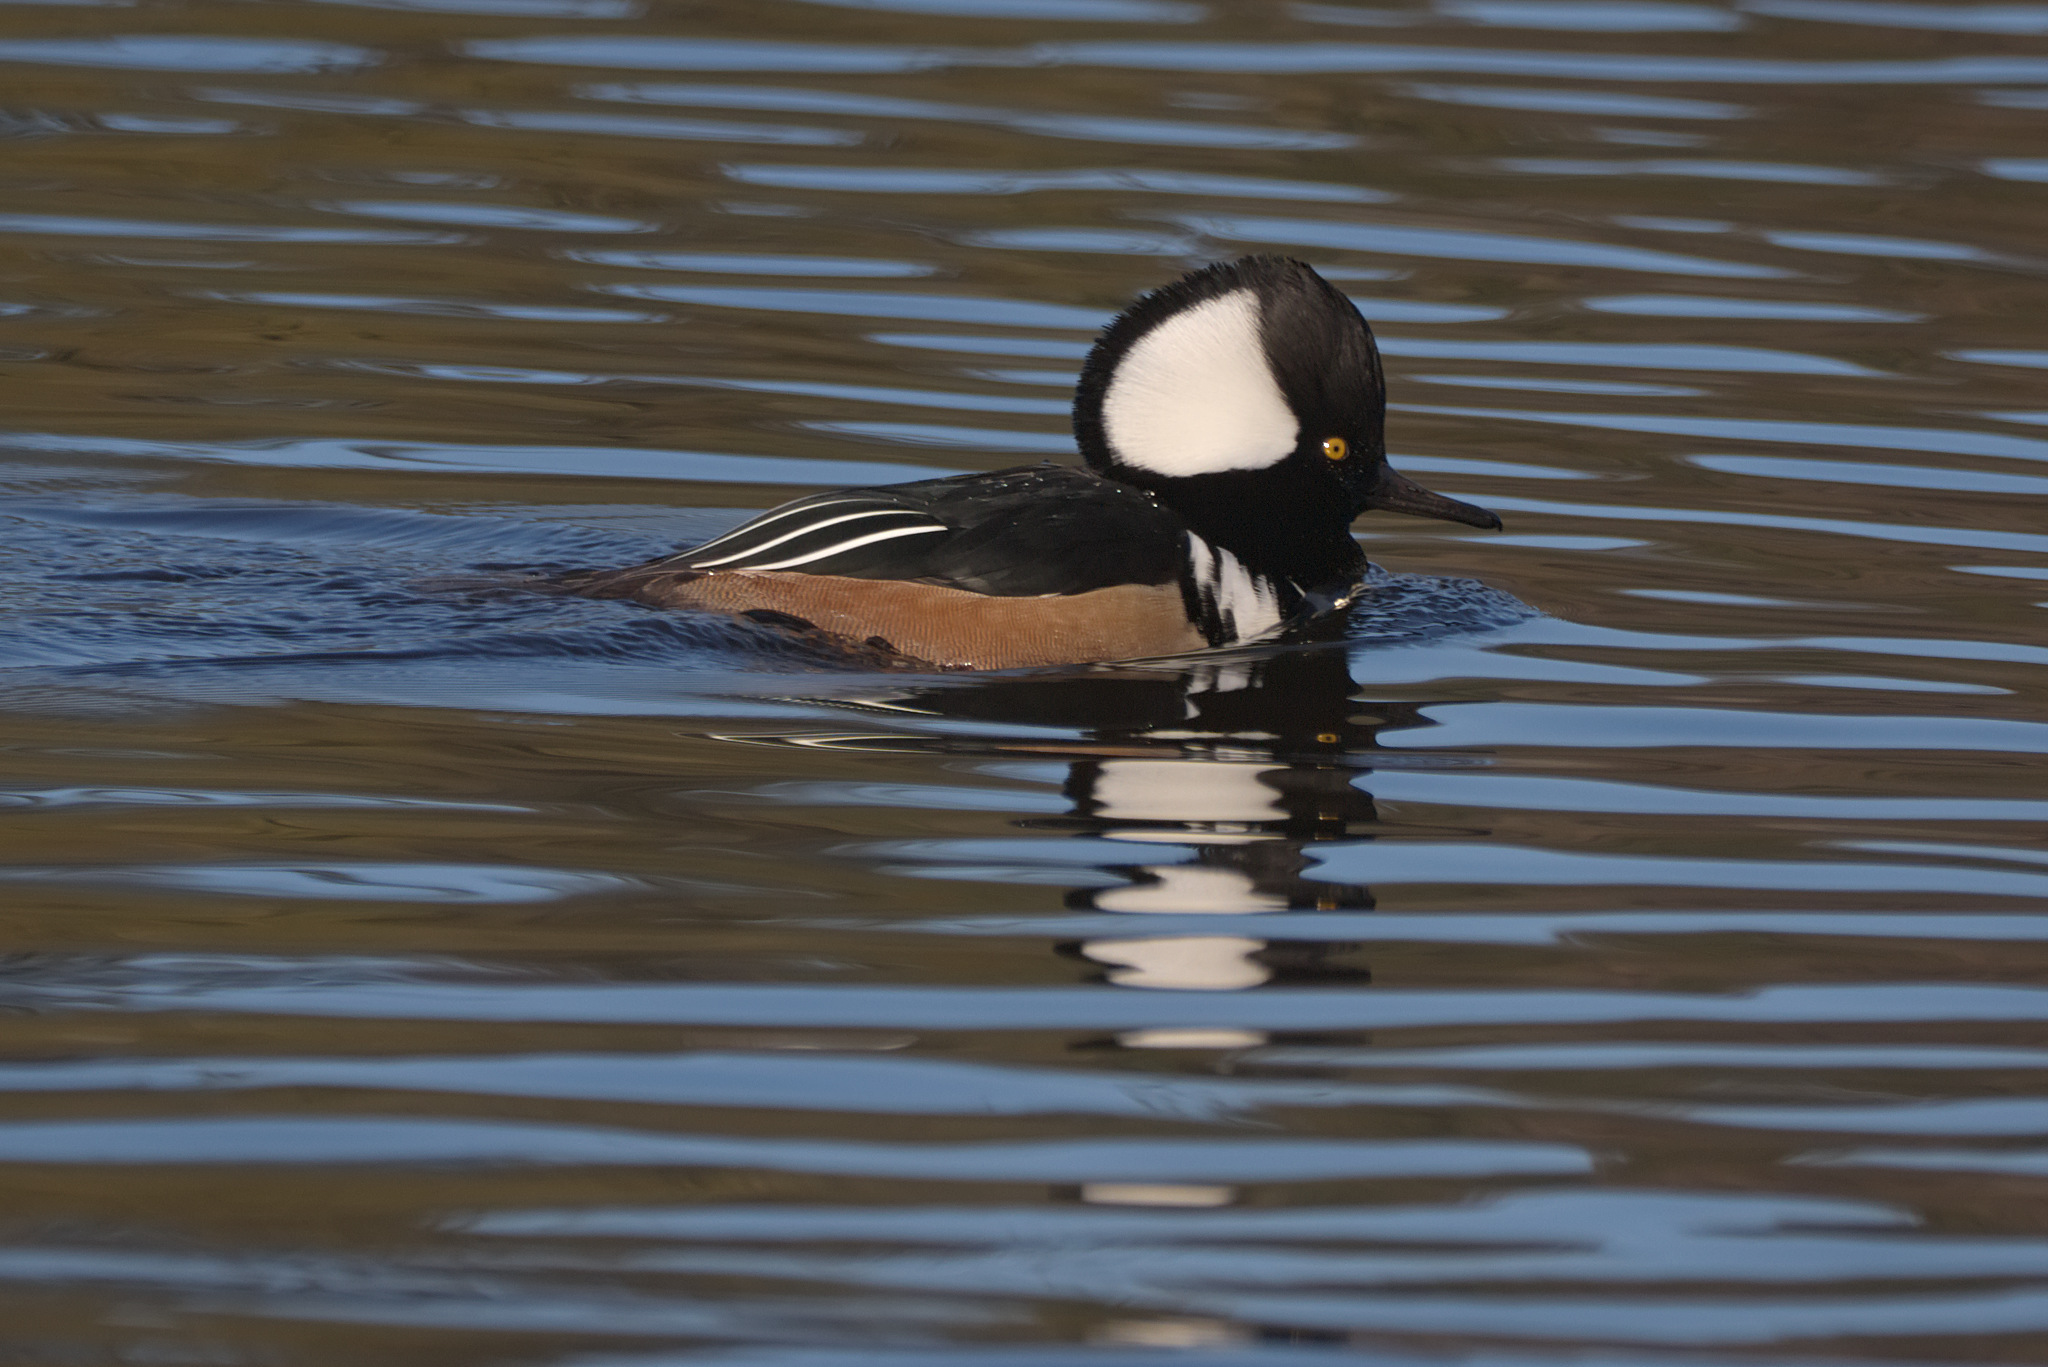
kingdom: Animalia
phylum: Chordata
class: Aves
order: Anseriformes
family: Anatidae
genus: Lophodytes
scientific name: Lophodytes cucullatus
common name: Hooded merganser
